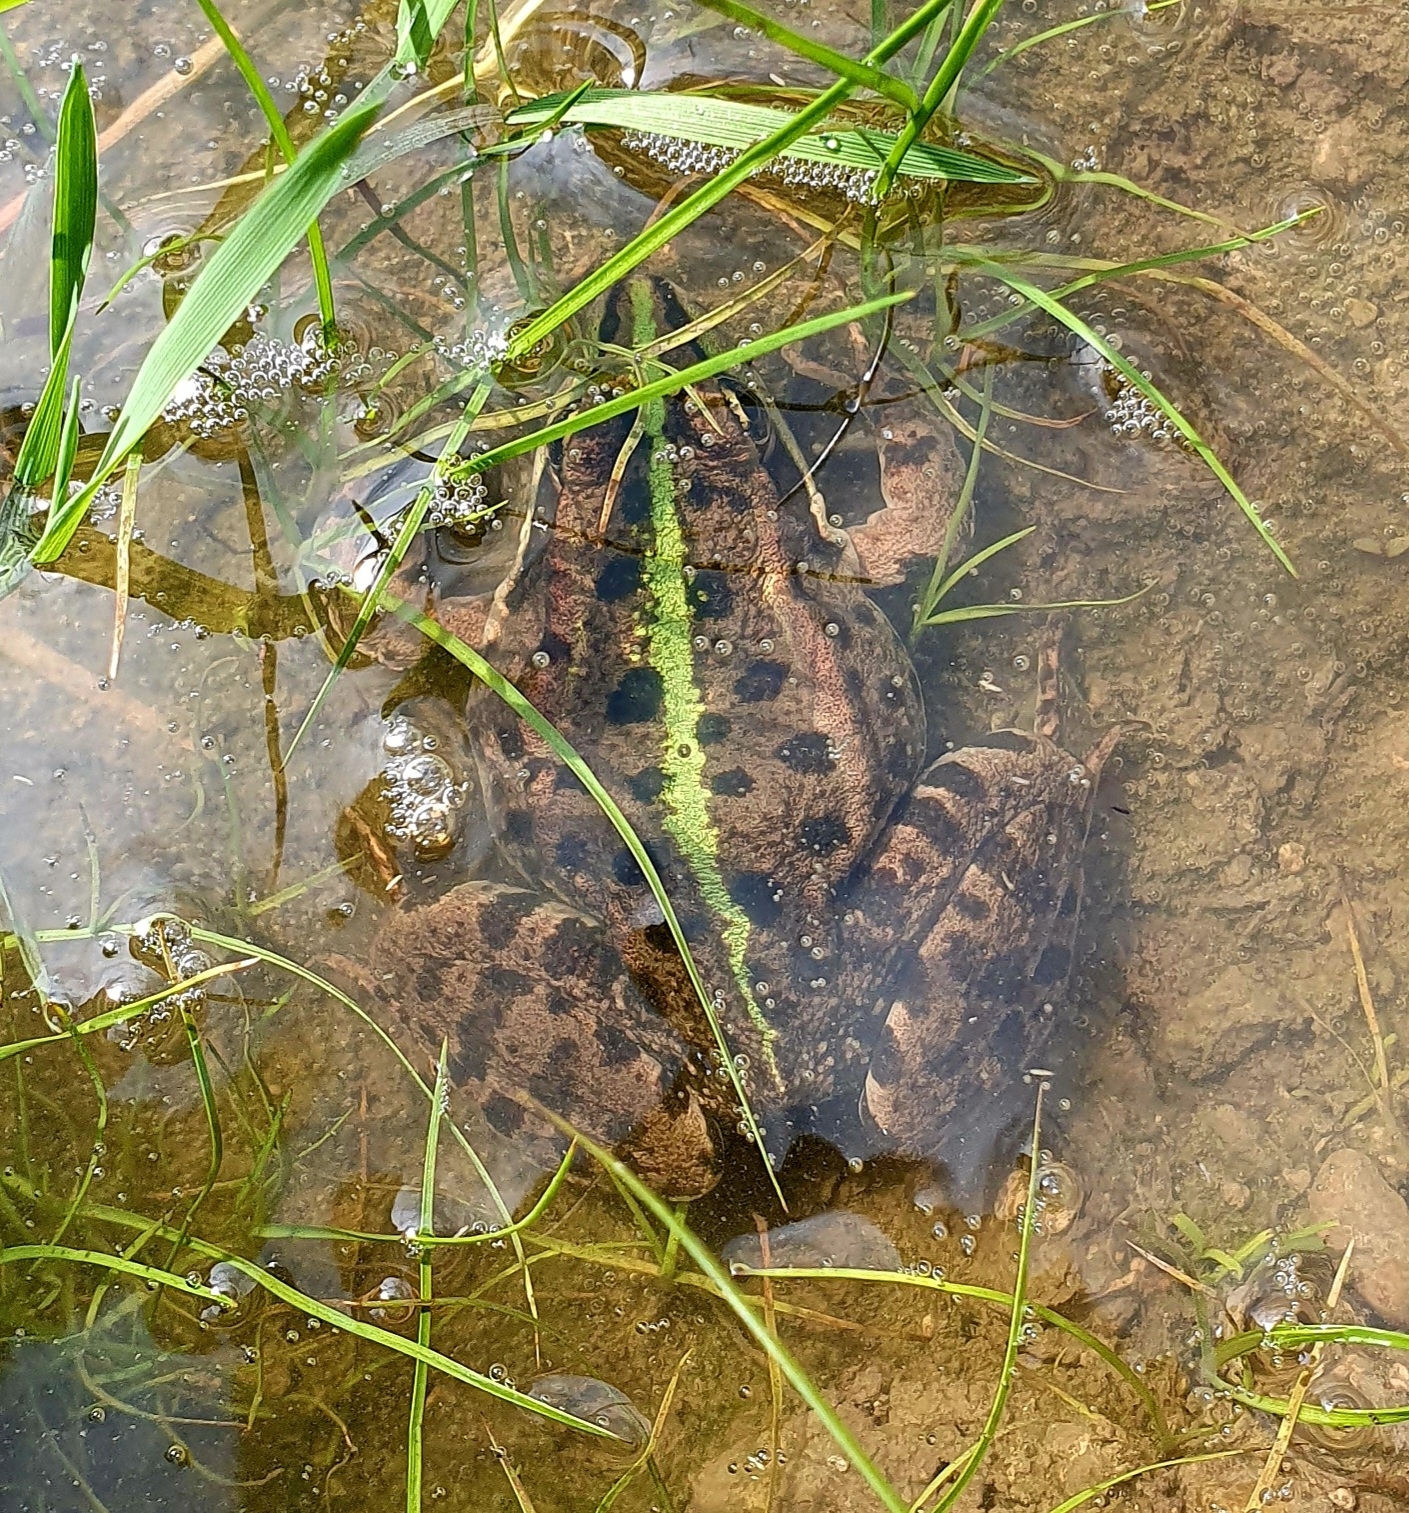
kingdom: Animalia
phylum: Chordata
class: Amphibia
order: Anura
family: Ranidae
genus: Pelophylax
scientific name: Pelophylax ridibundus
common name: Marsh frog
